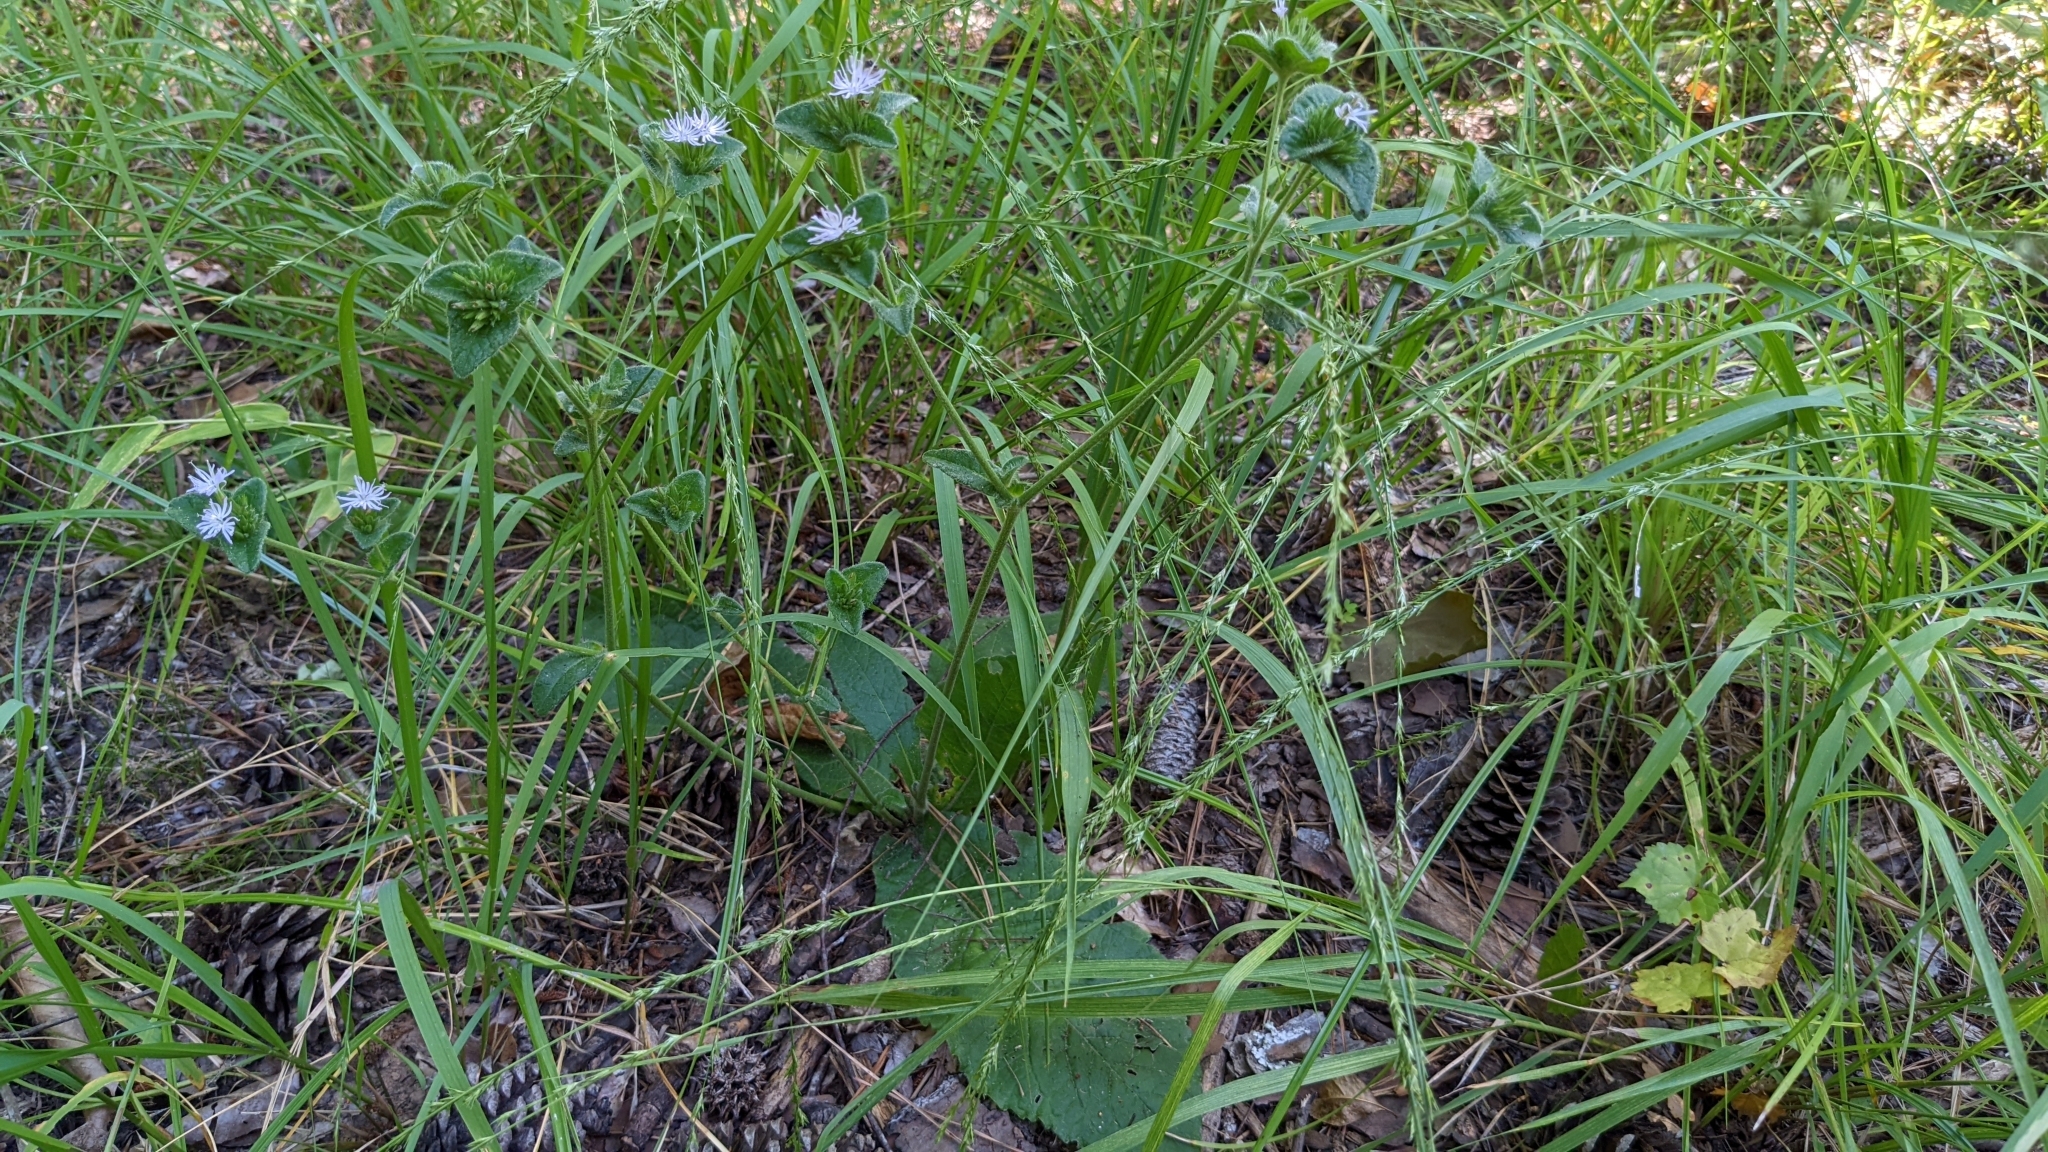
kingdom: Plantae
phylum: Tracheophyta
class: Magnoliopsida
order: Asterales
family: Asteraceae
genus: Elephantopus
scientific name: Elephantopus tomentosus
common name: Tobacco-weed
